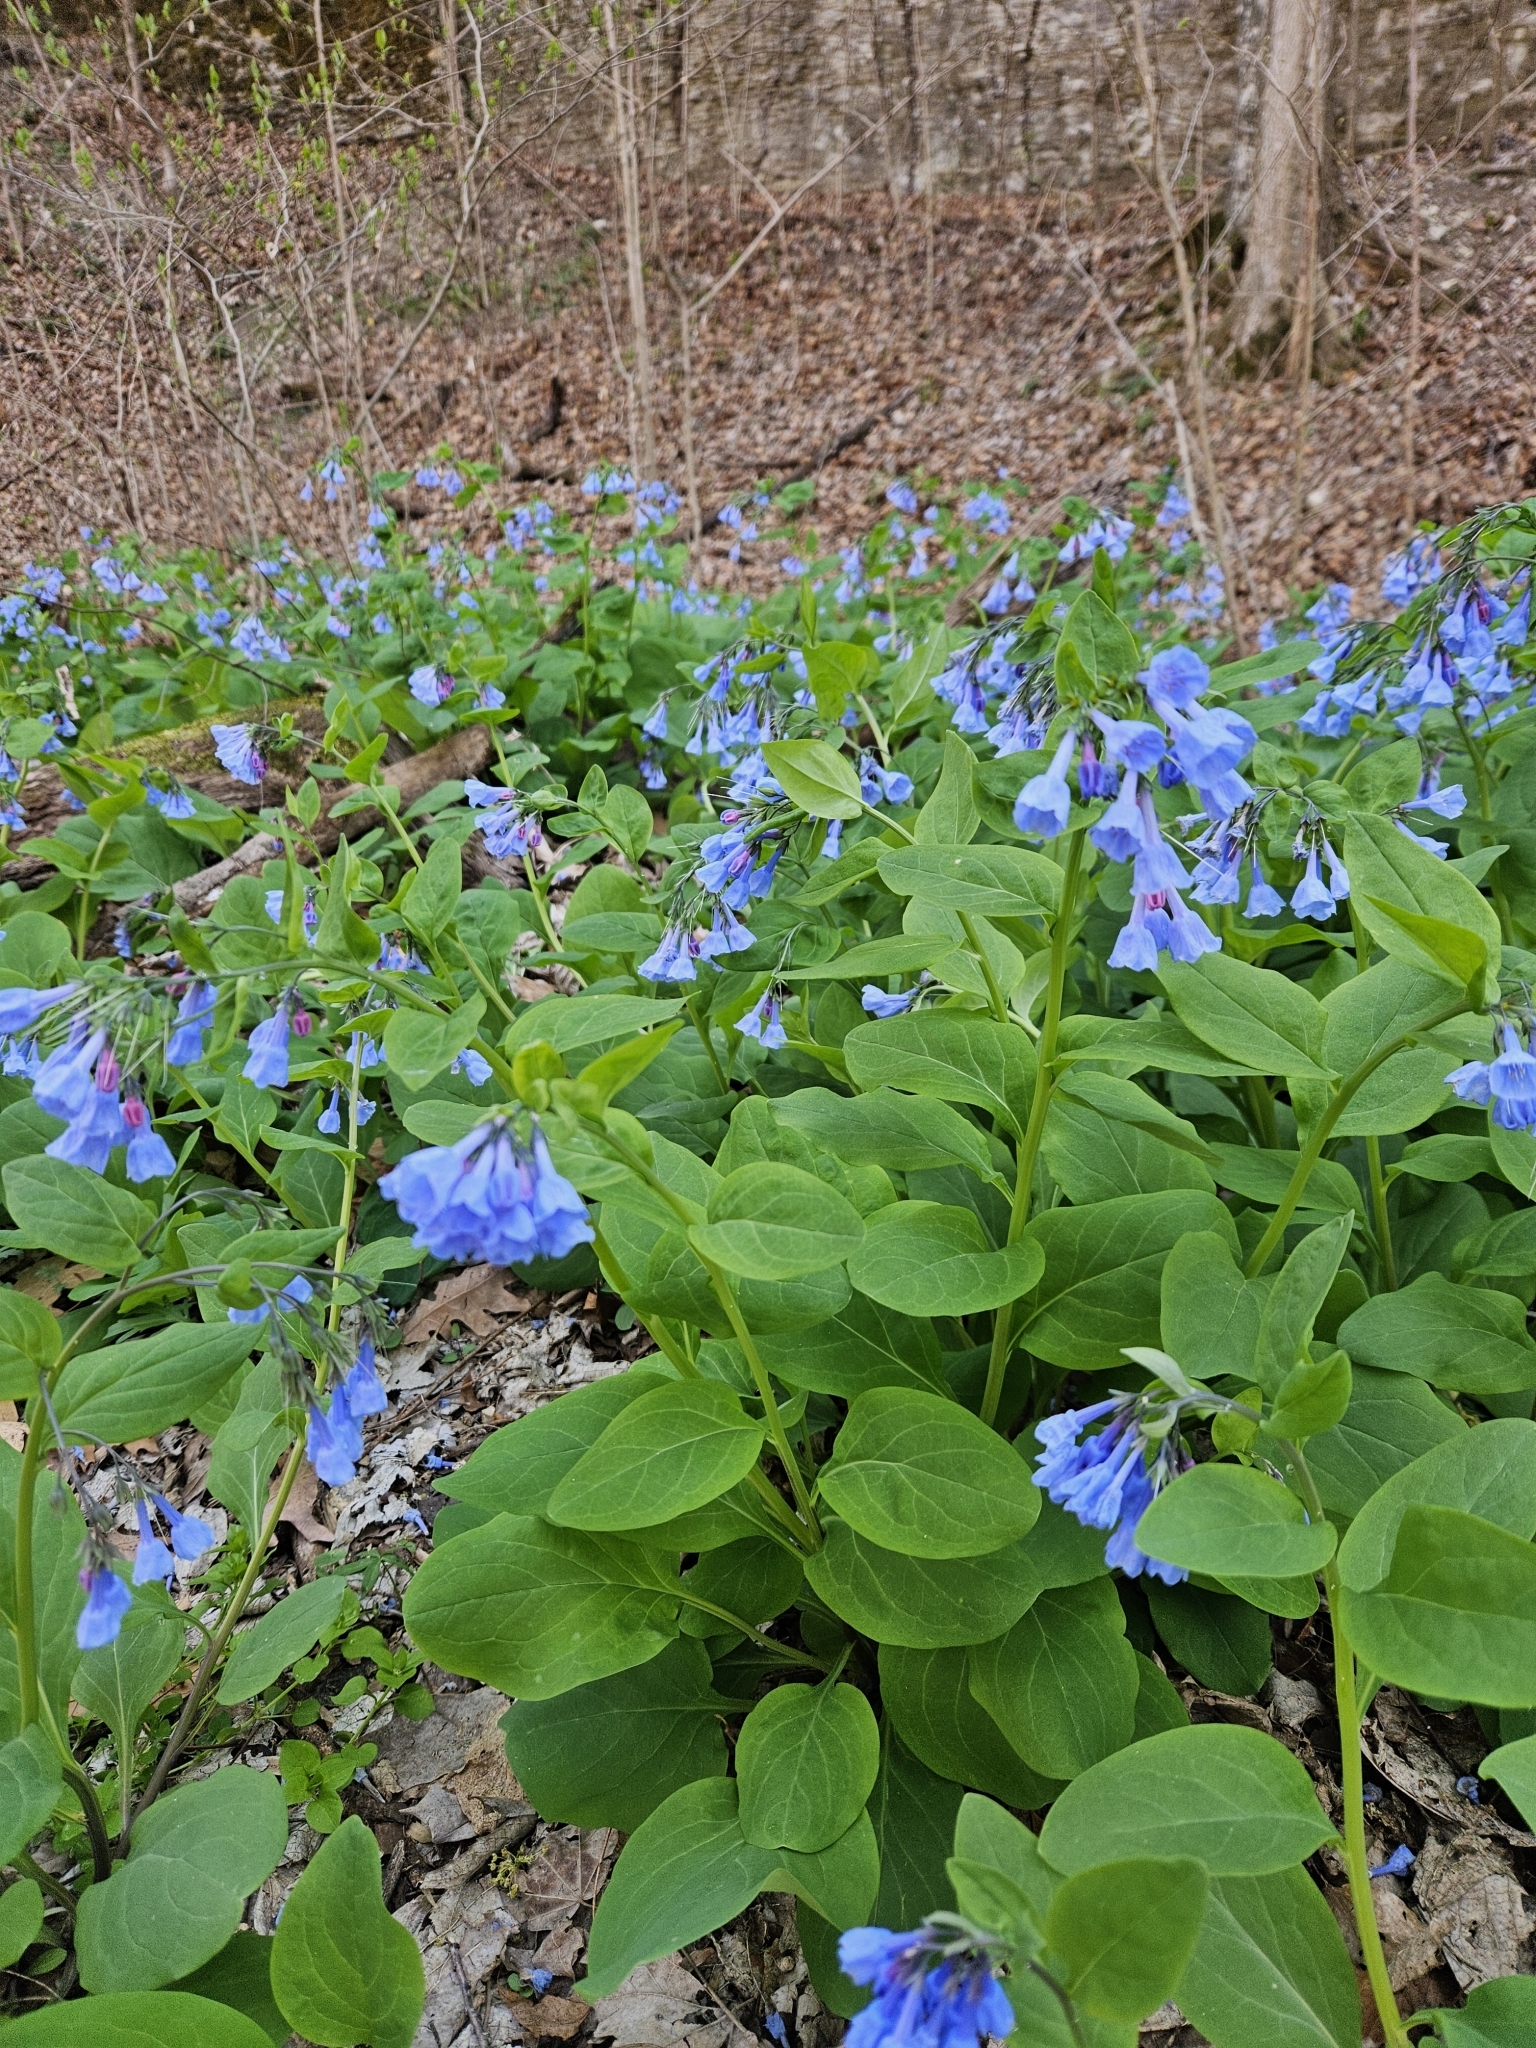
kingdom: Plantae
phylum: Tracheophyta
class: Magnoliopsida
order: Boraginales
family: Boraginaceae
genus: Mertensia
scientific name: Mertensia virginica
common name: Virginia bluebells
